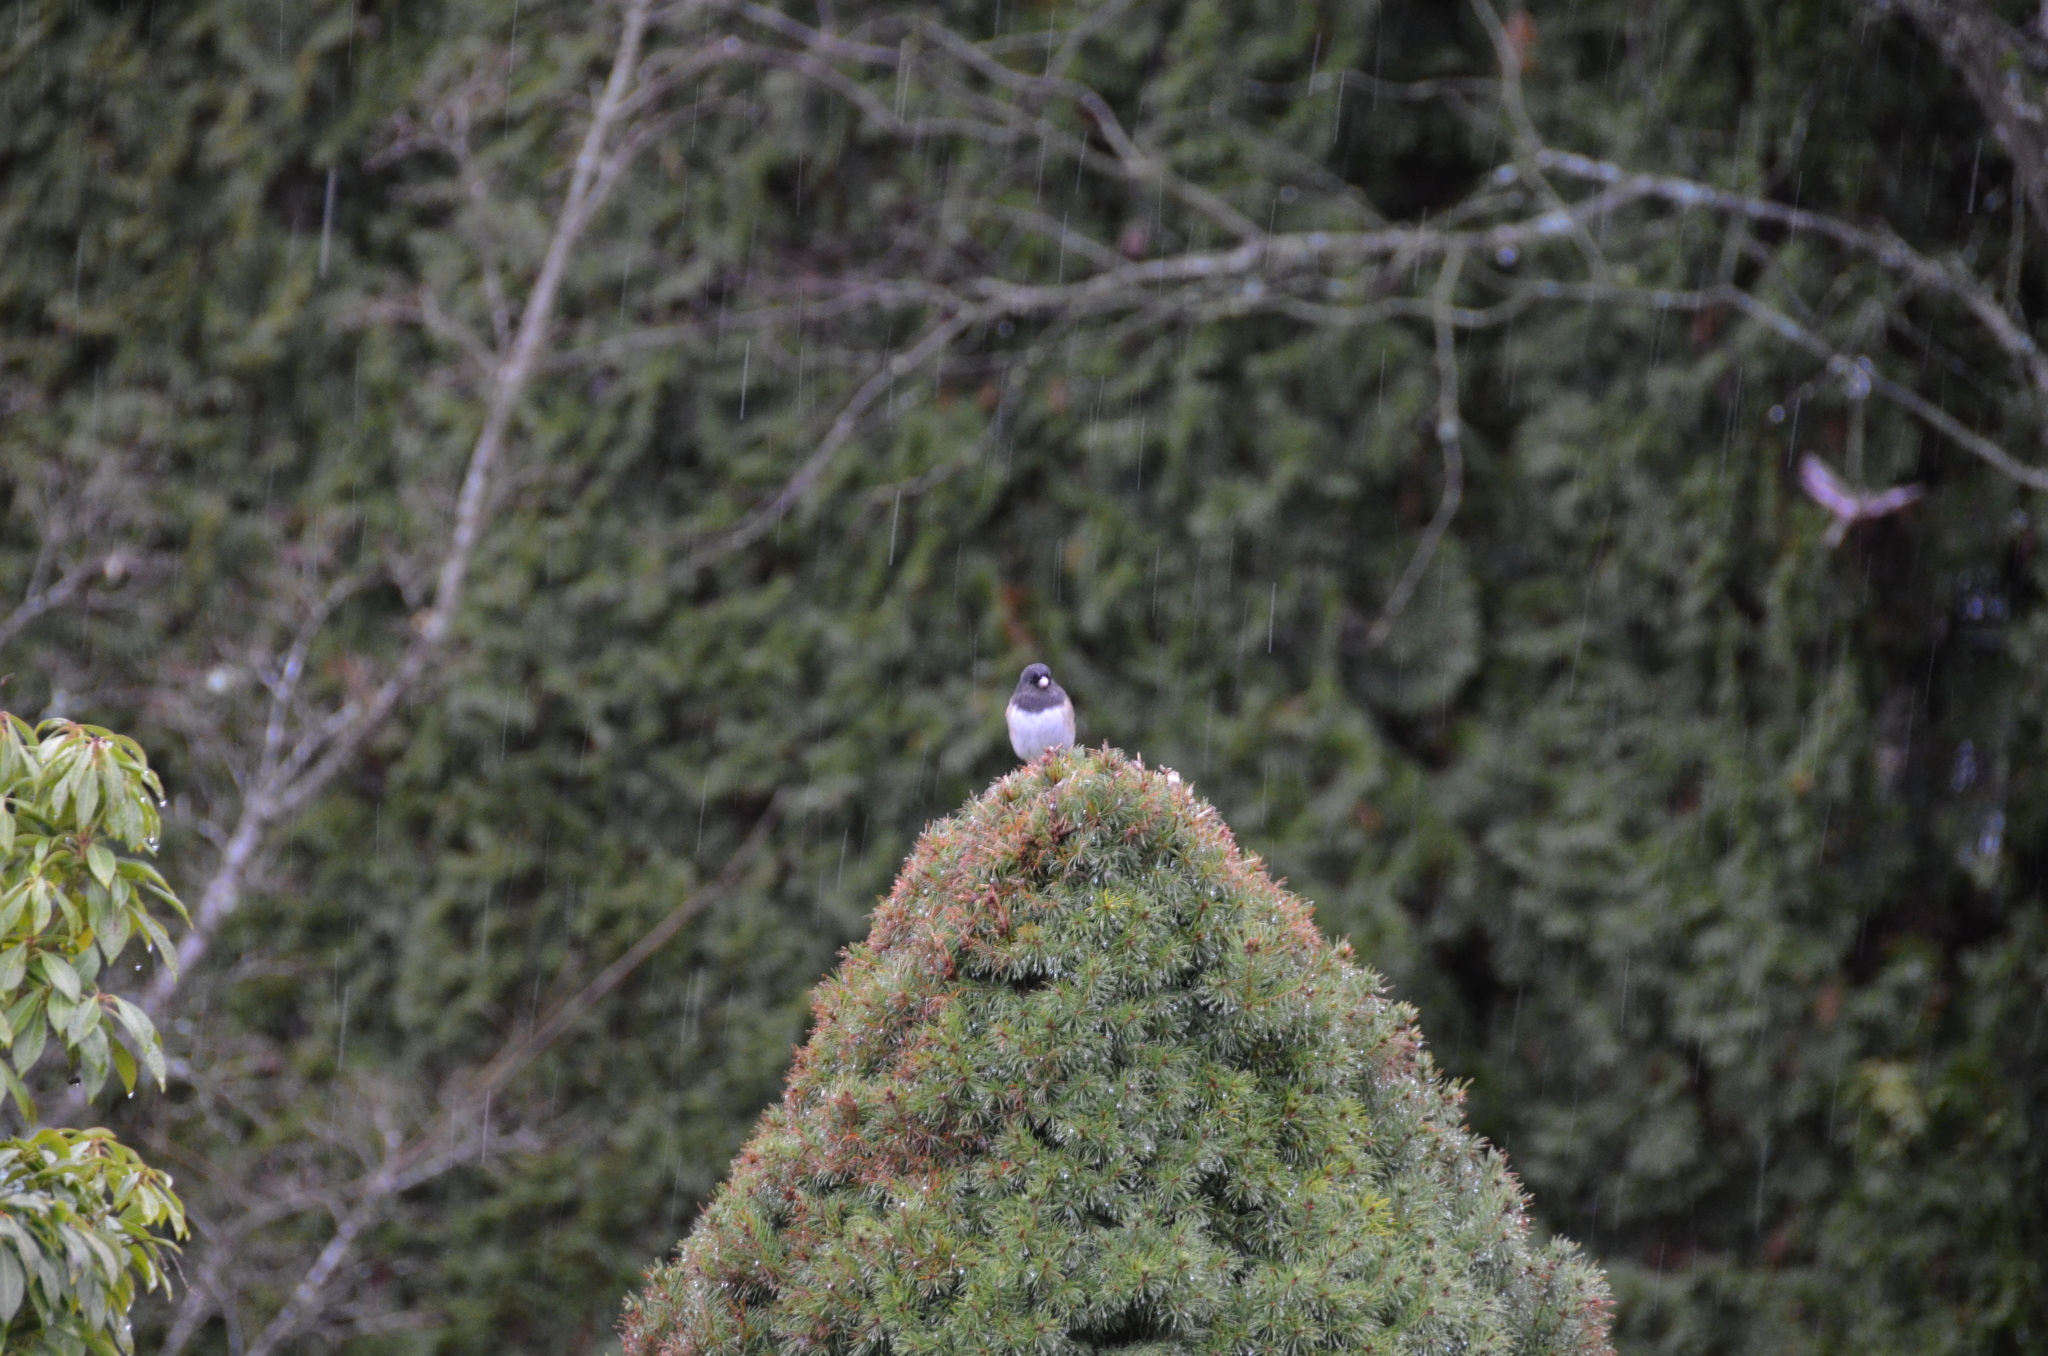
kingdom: Animalia
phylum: Chordata
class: Aves
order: Passeriformes
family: Passerellidae
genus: Junco
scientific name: Junco hyemalis
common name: Dark-eyed junco
